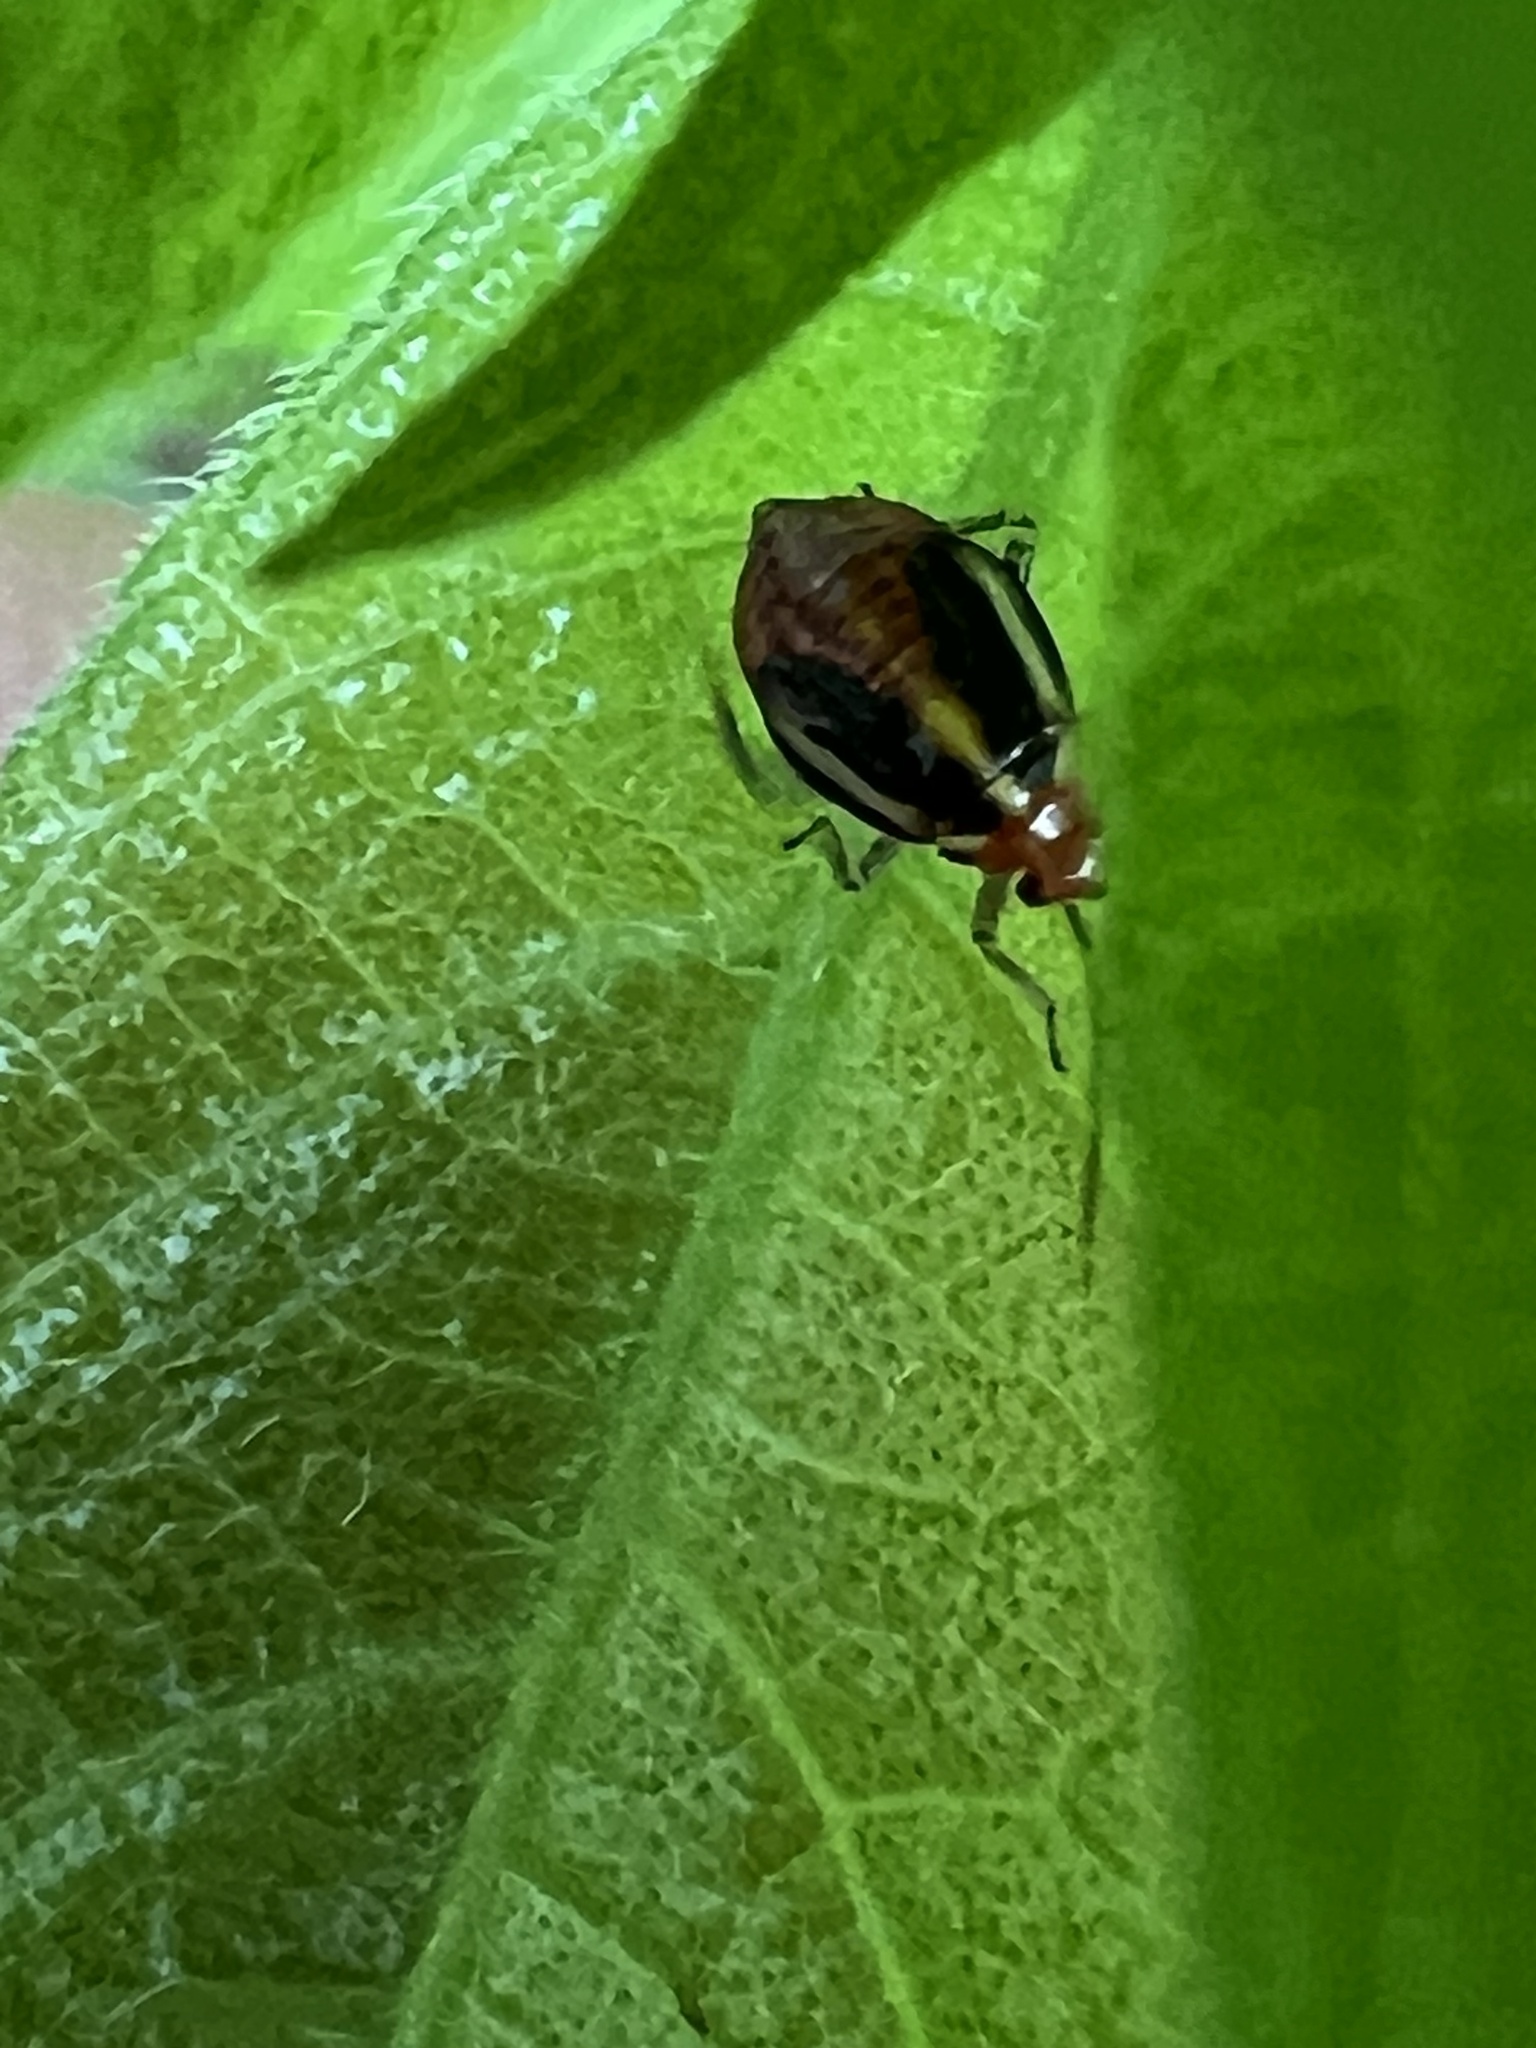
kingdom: Animalia
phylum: Arthropoda
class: Insecta
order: Hemiptera
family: Miridae
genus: Poecilocapsus
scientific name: Poecilocapsus lineatus
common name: Four-lined plant bug
